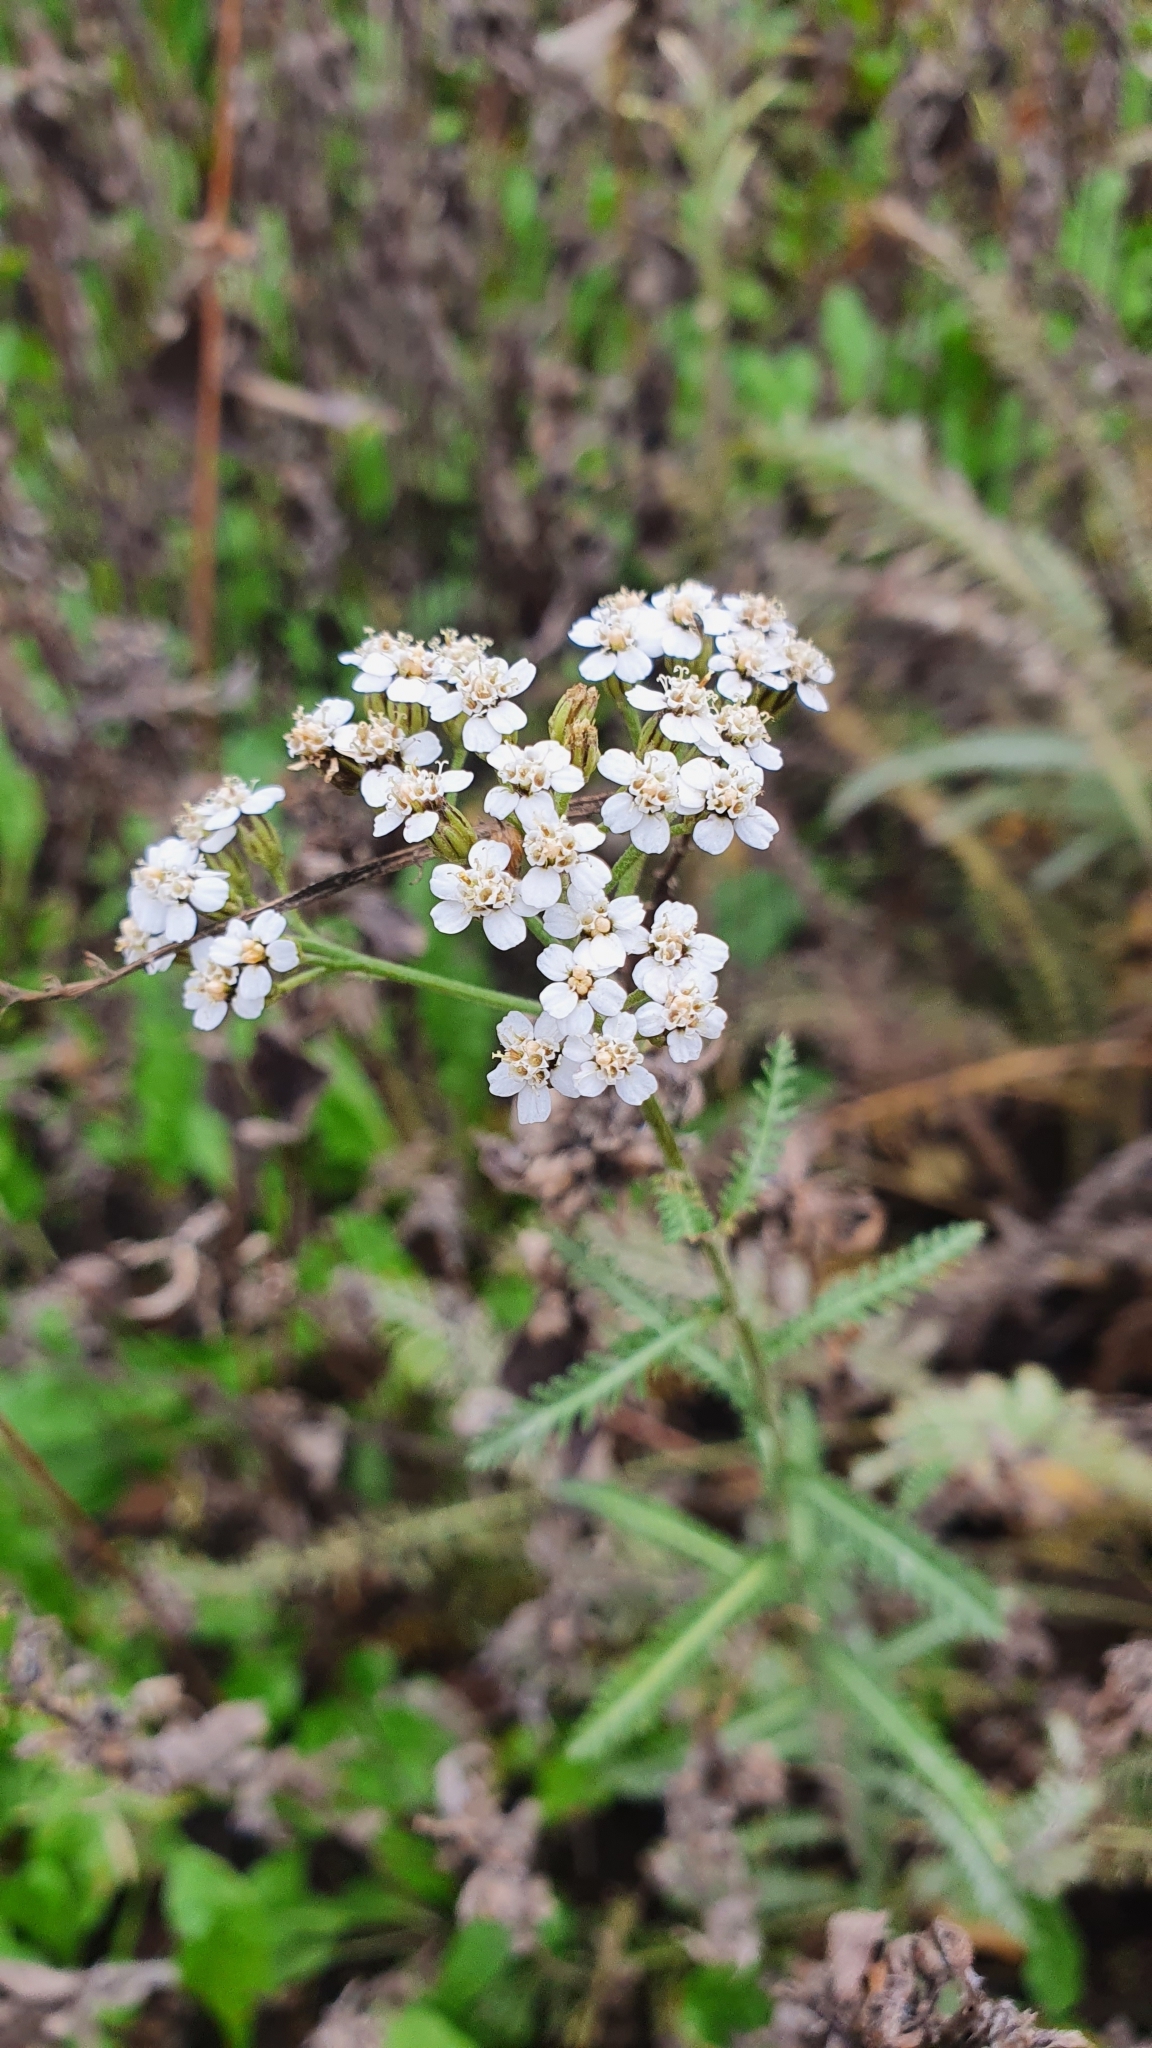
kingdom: Plantae
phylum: Tracheophyta
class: Magnoliopsida
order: Asterales
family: Asteraceae
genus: Achillea
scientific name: Achillea millefolium
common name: Yarrow
